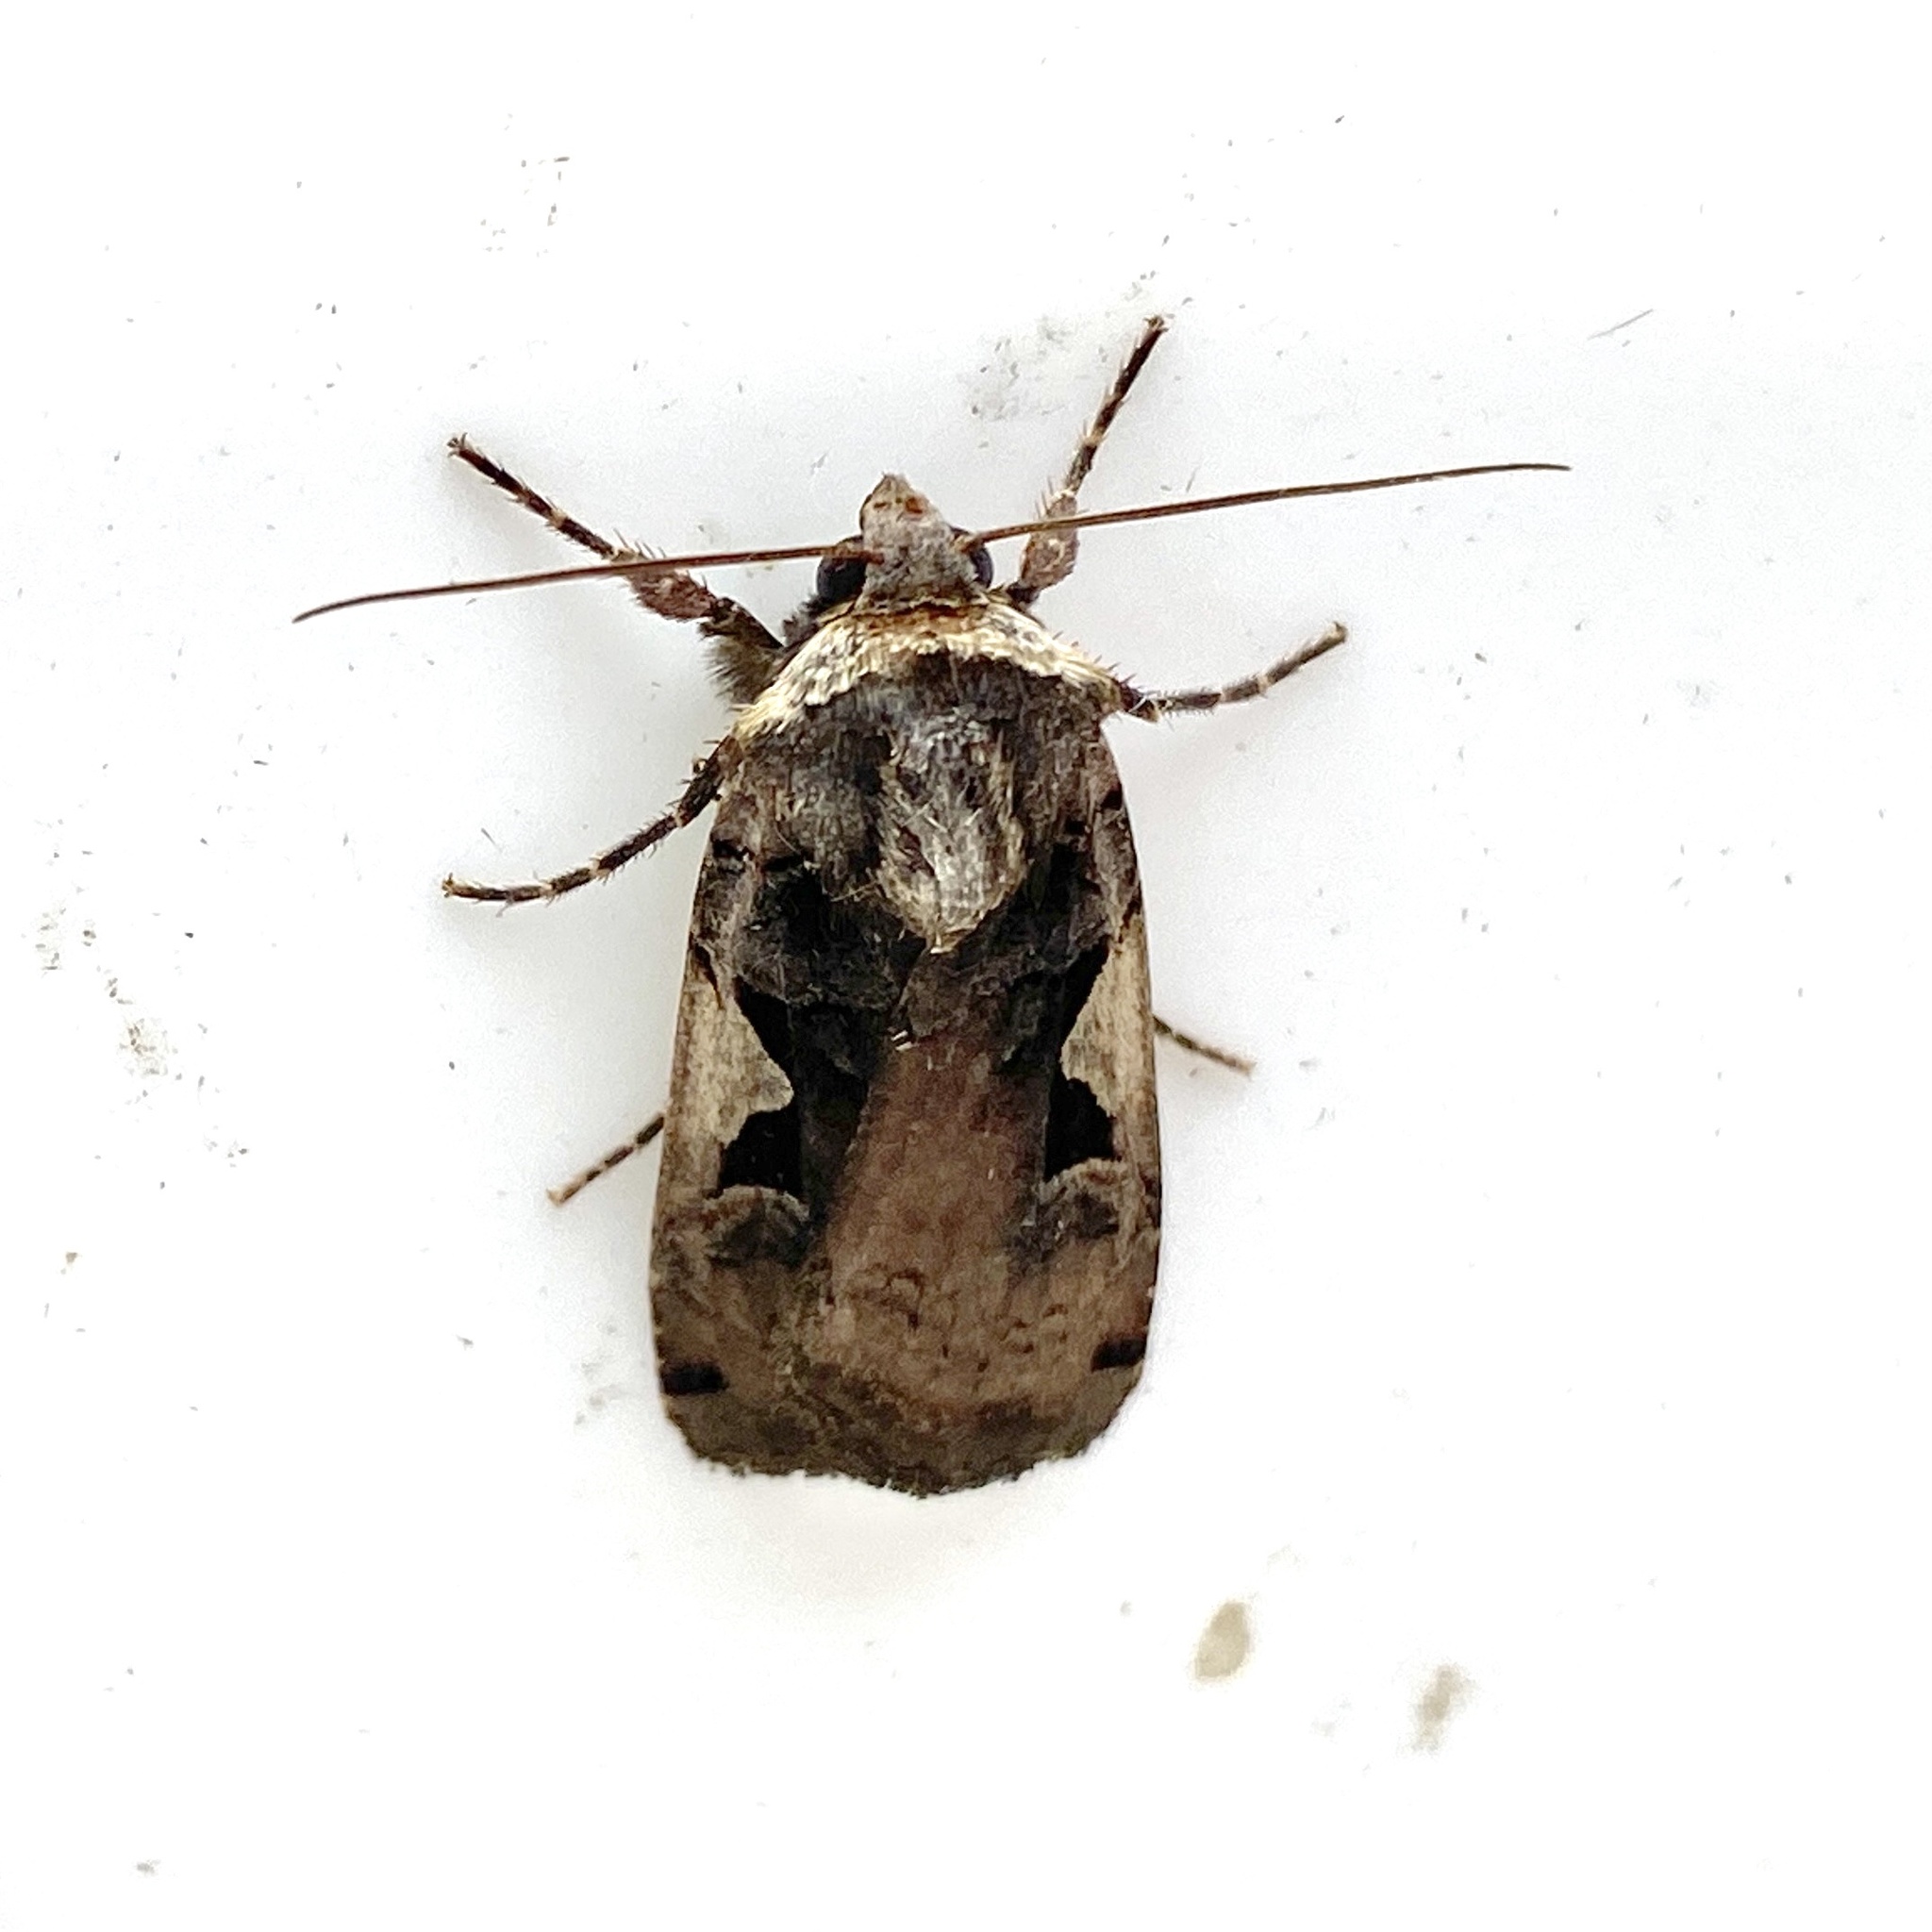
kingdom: Animalia
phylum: Arthropoda
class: Insecta
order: Lepidoptera
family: Noctuidae
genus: Xestia
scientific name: Xestia dolosa
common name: Cutworm moth
